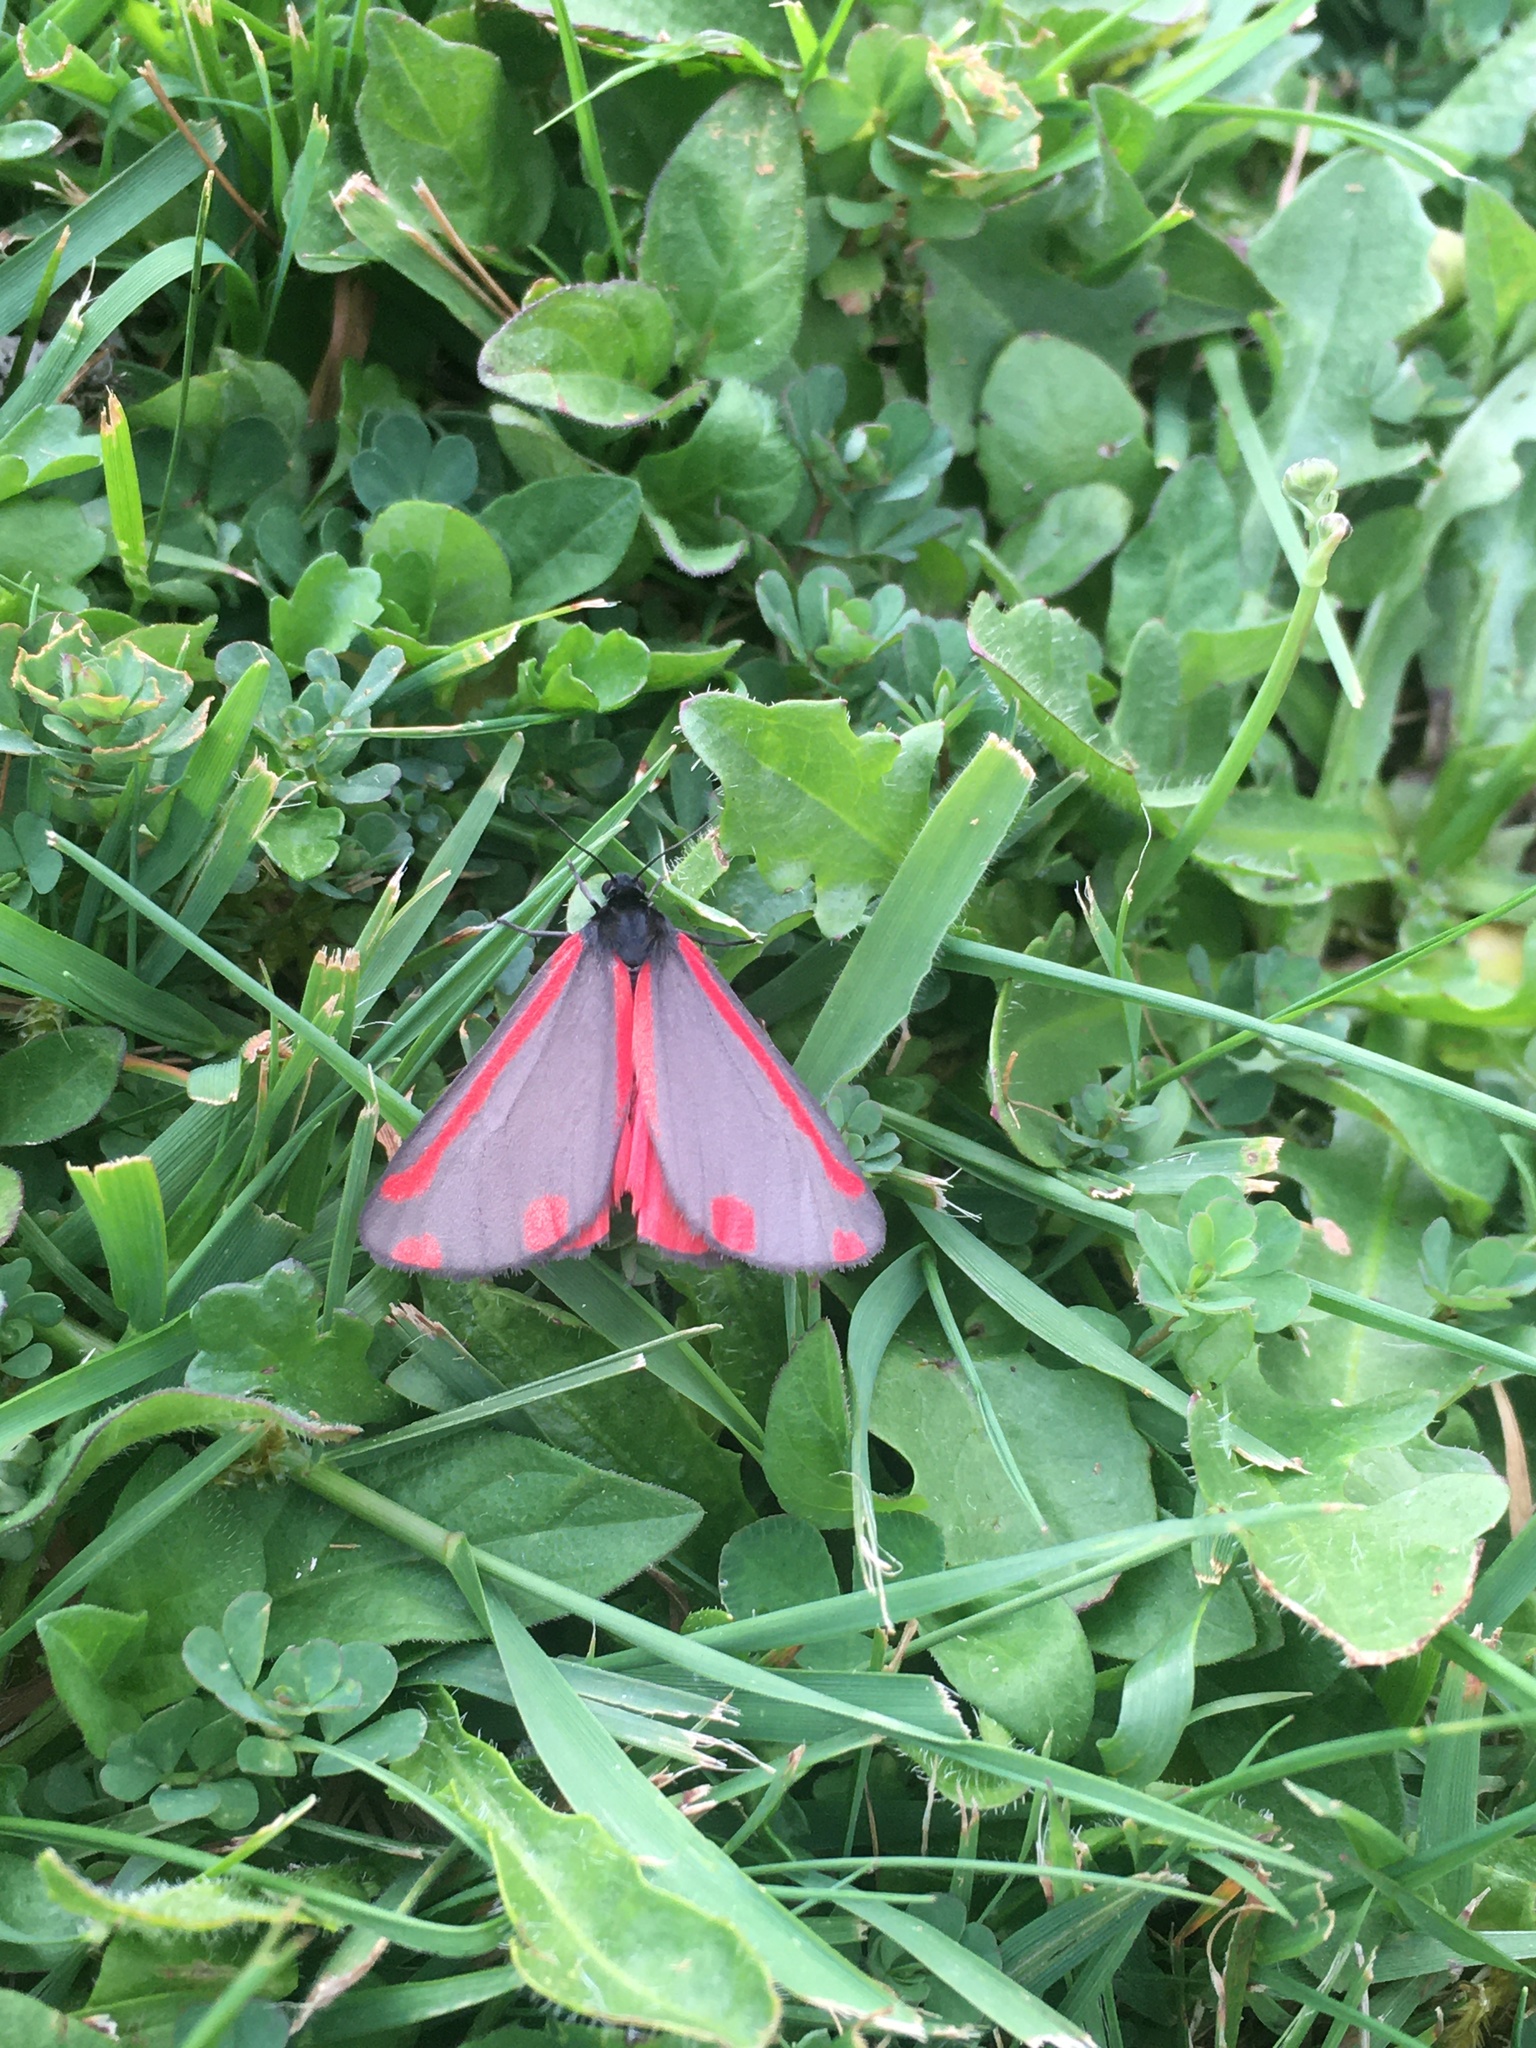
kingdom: Animalia
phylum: Arthropoda
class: Insecta
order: Lepidoptera
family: Erebidae
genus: Tyria
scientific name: Tyria jacobaeae
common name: Cinnabar
